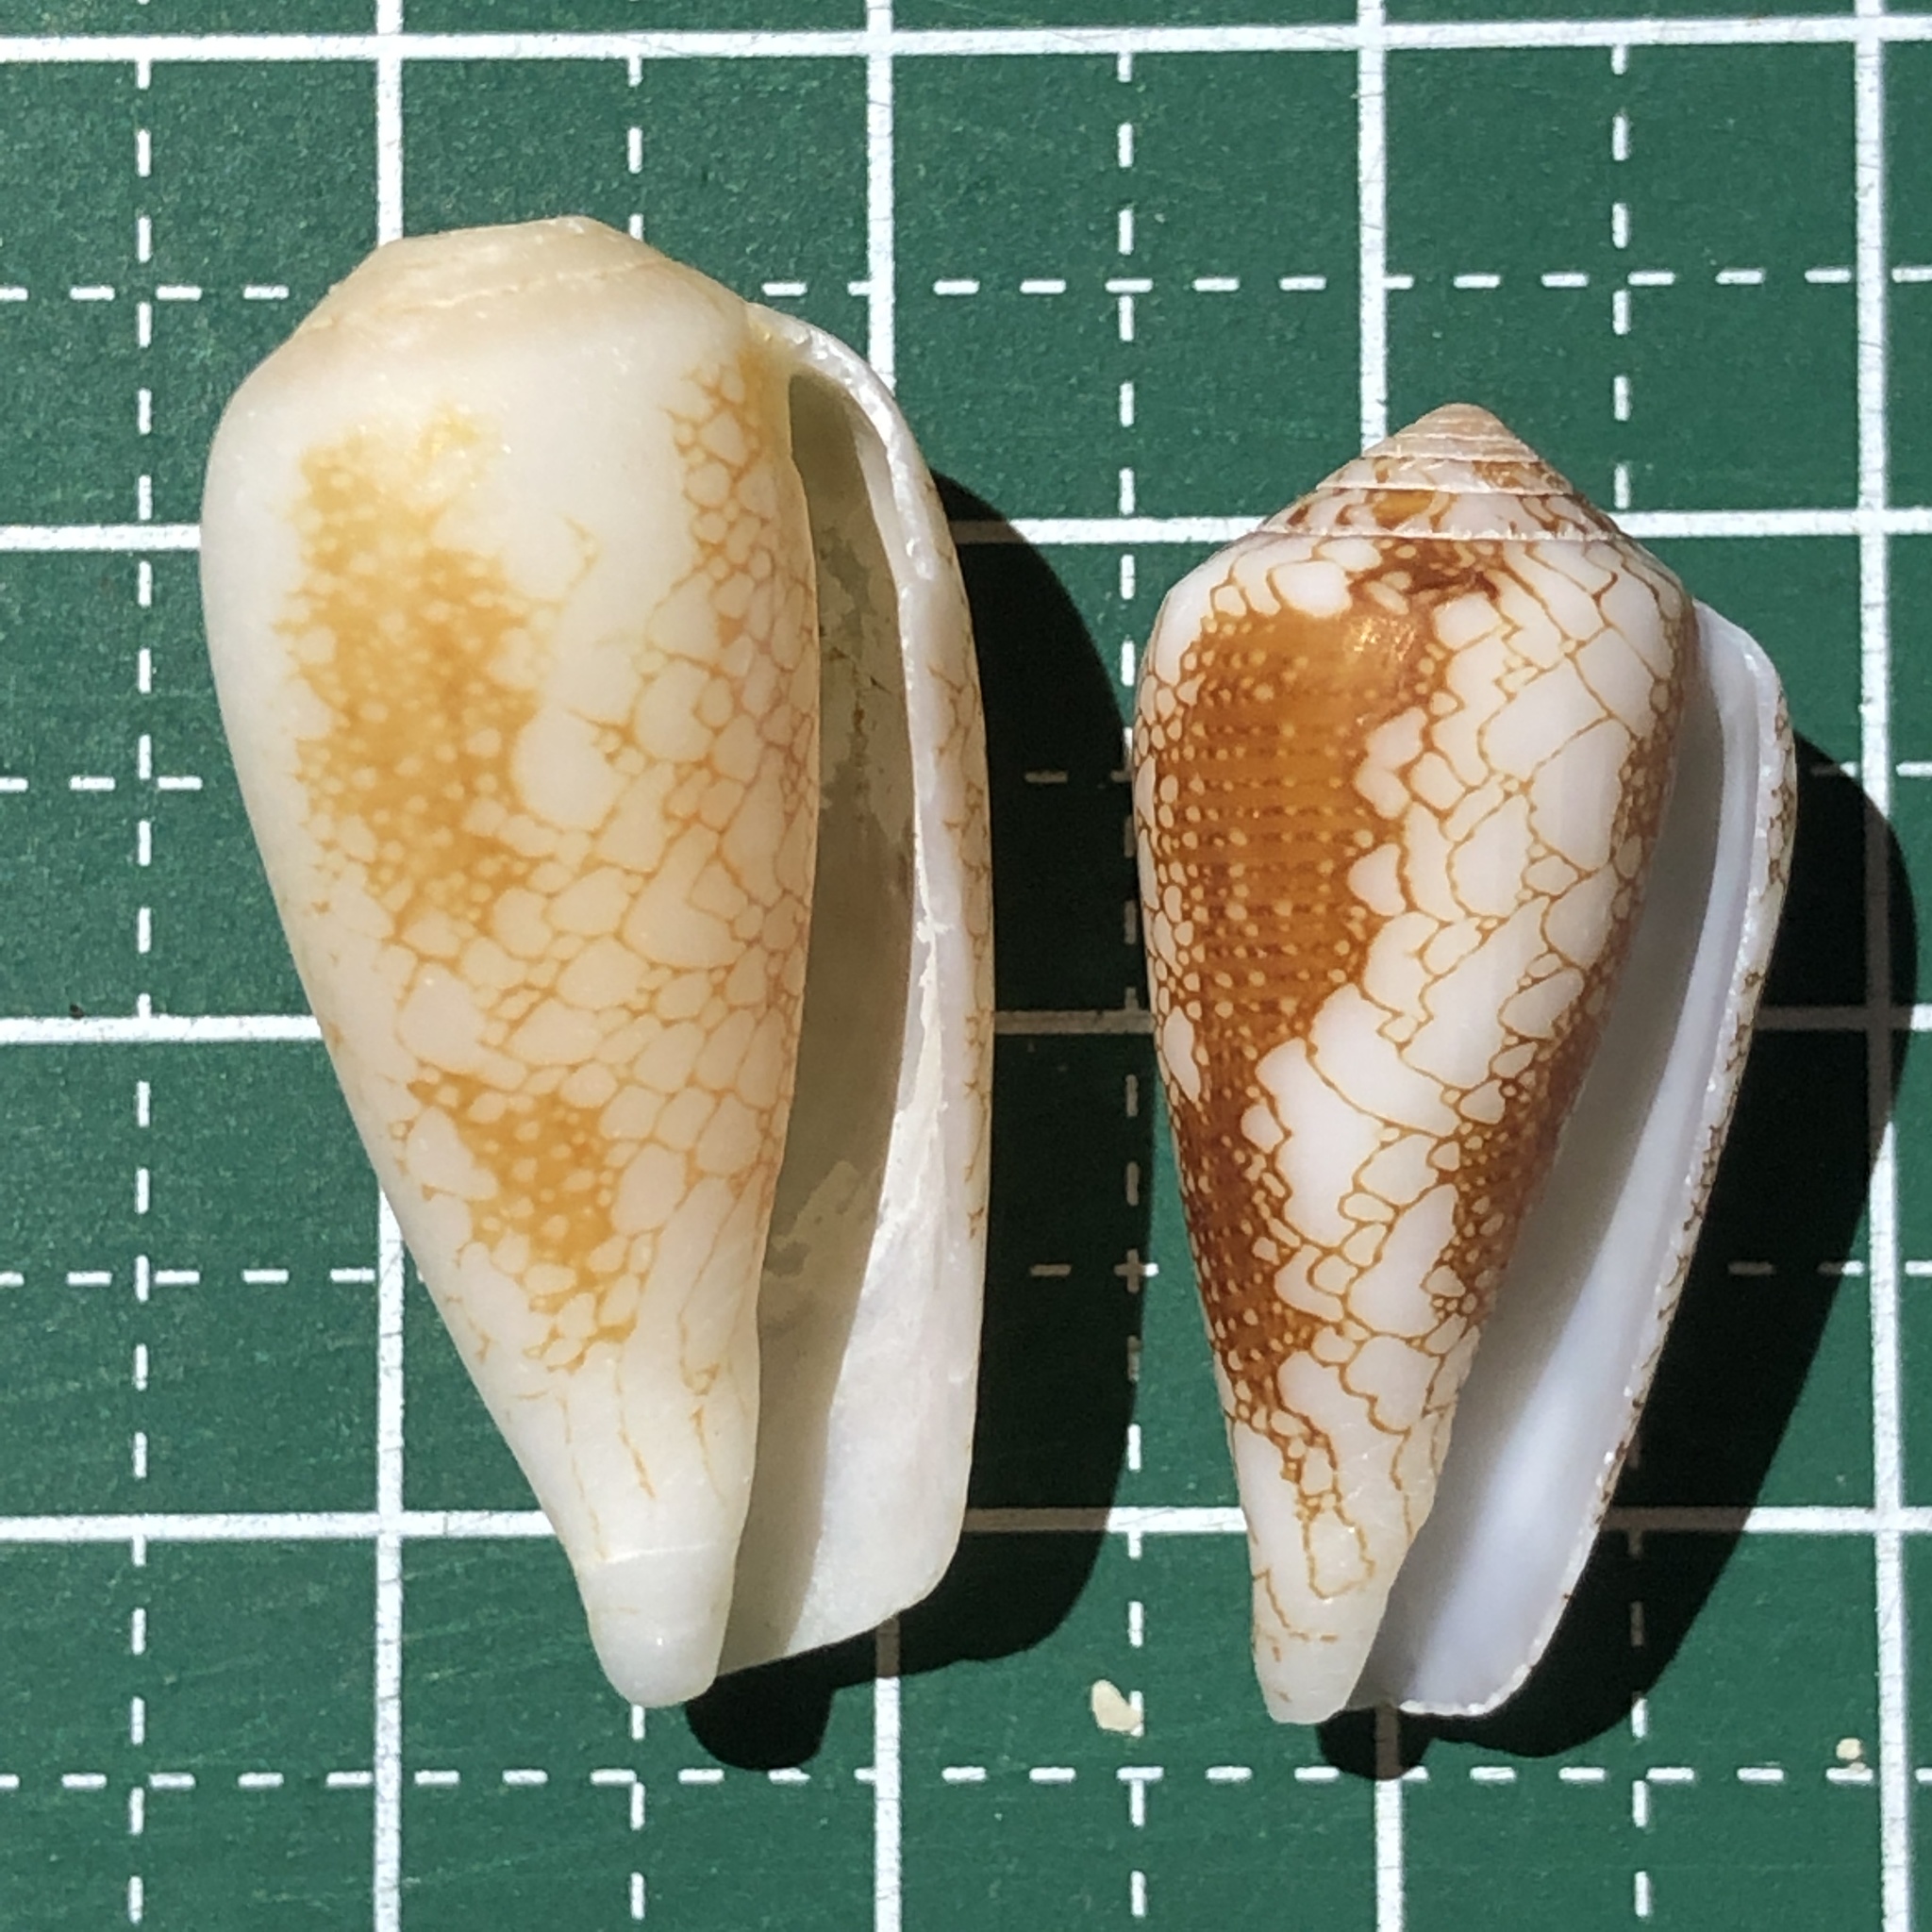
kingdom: Animalia
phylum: Mollusca
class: Gastropoda
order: Neogastropoda
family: Conidae
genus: Conus
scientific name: Conus omaria
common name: Omaria cone
